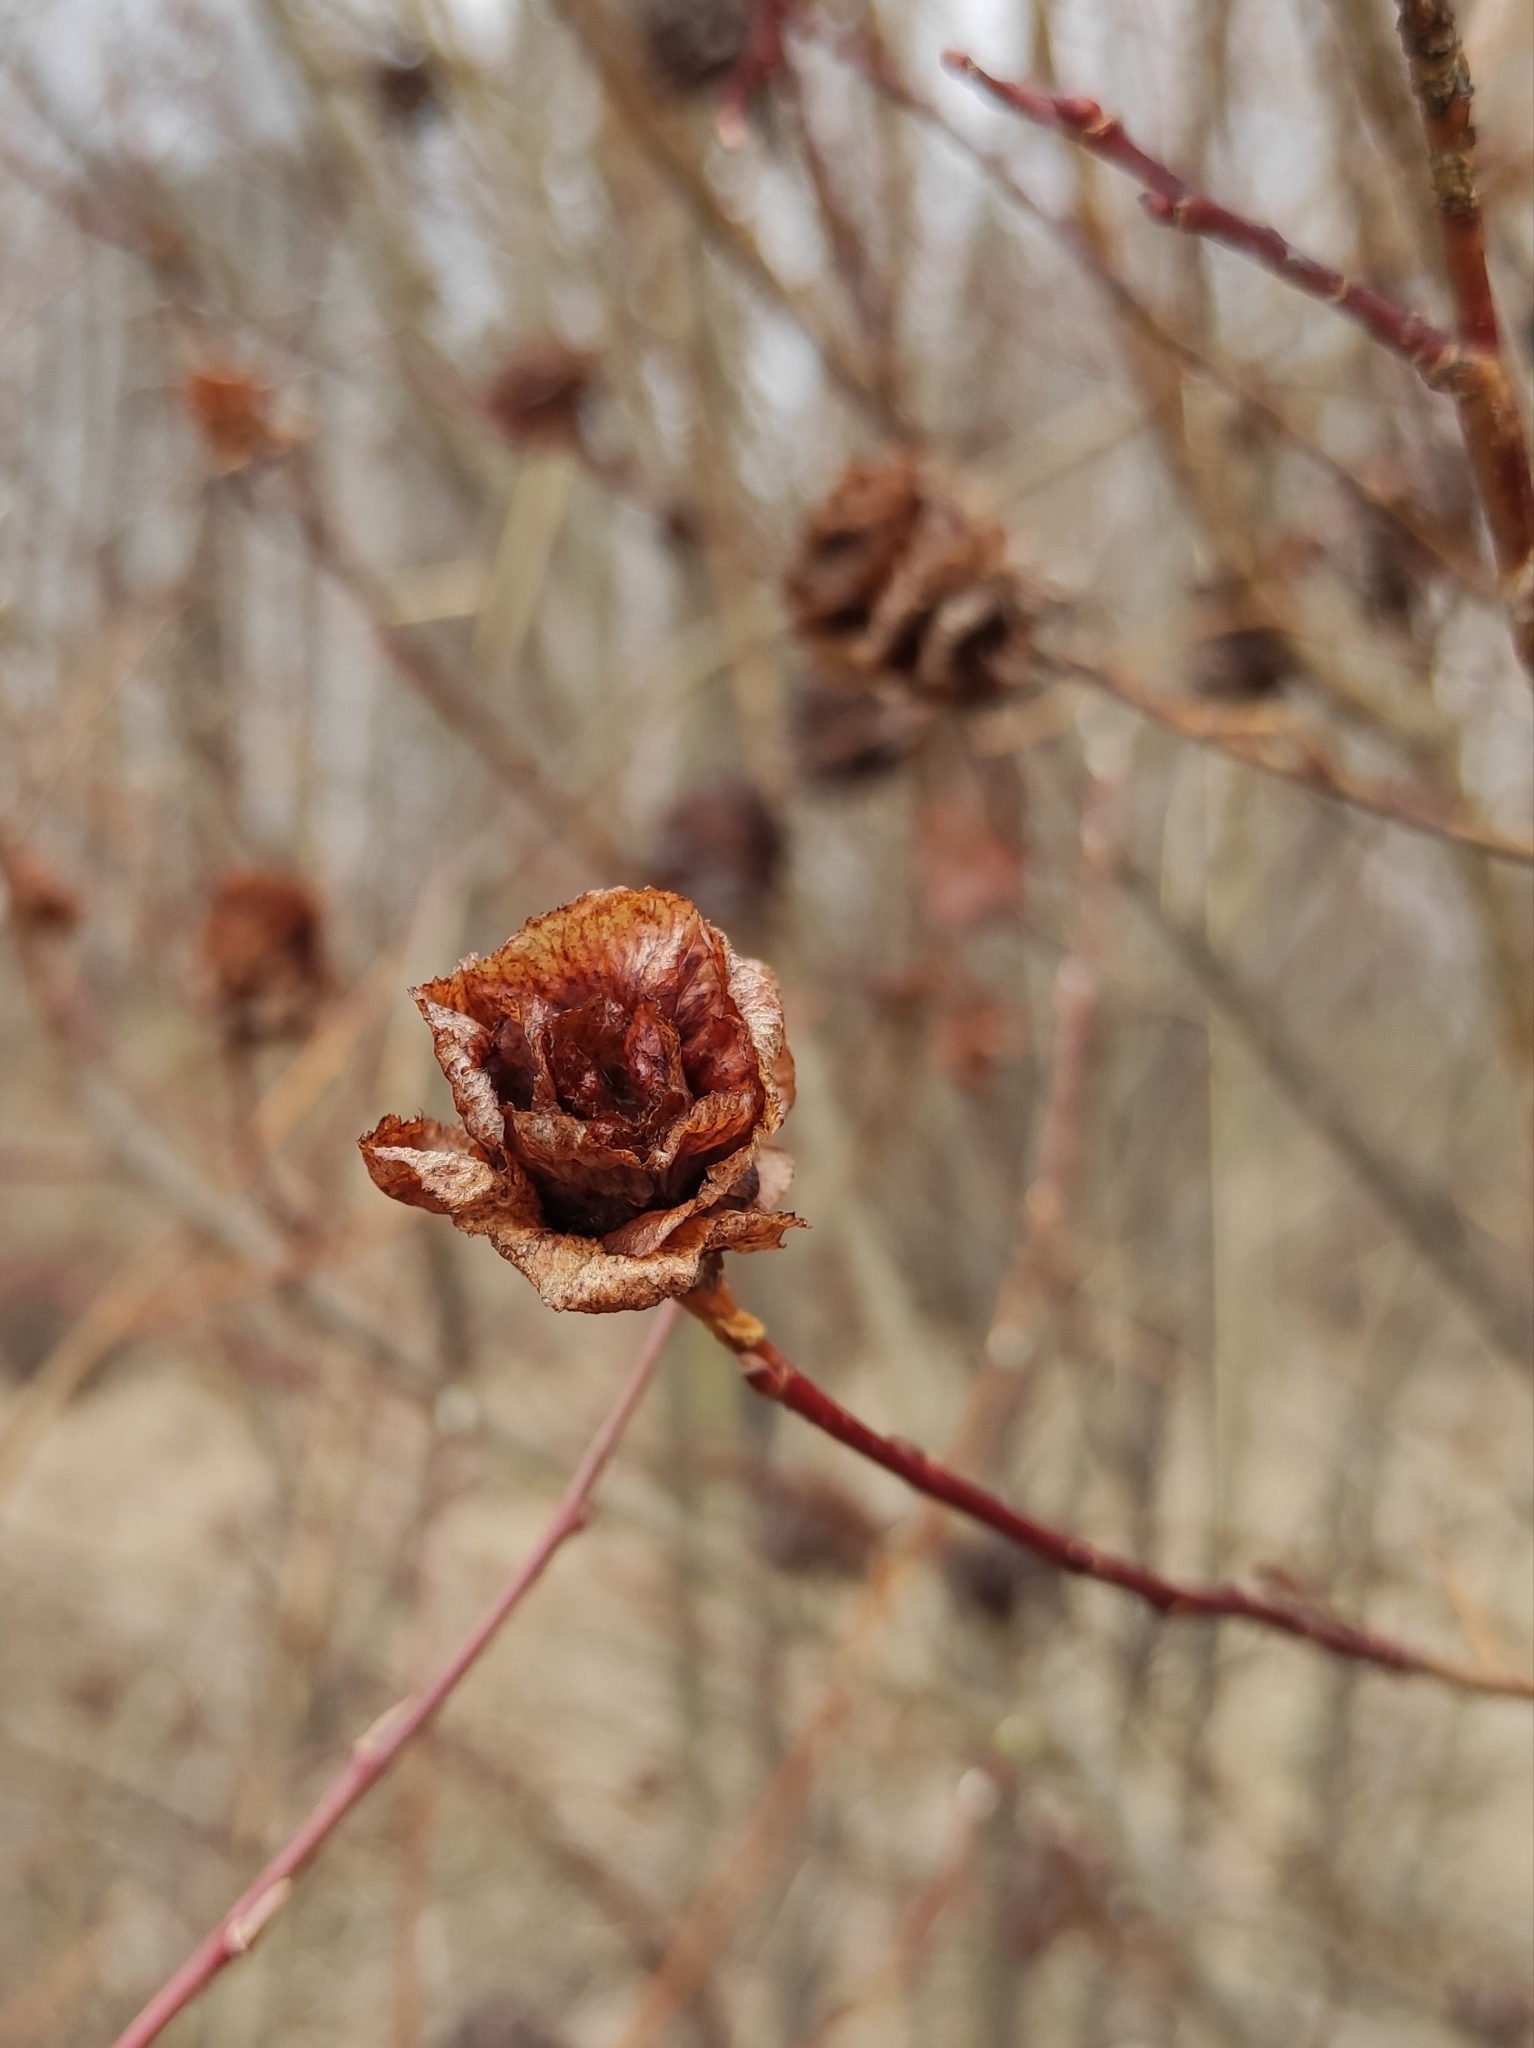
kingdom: Animalia
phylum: Arthropoda
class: Insecta
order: Diptera
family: Cecidomyiidae
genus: Rabdophaga
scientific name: Rabdophaga rosaria
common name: Willow rose gall midge
